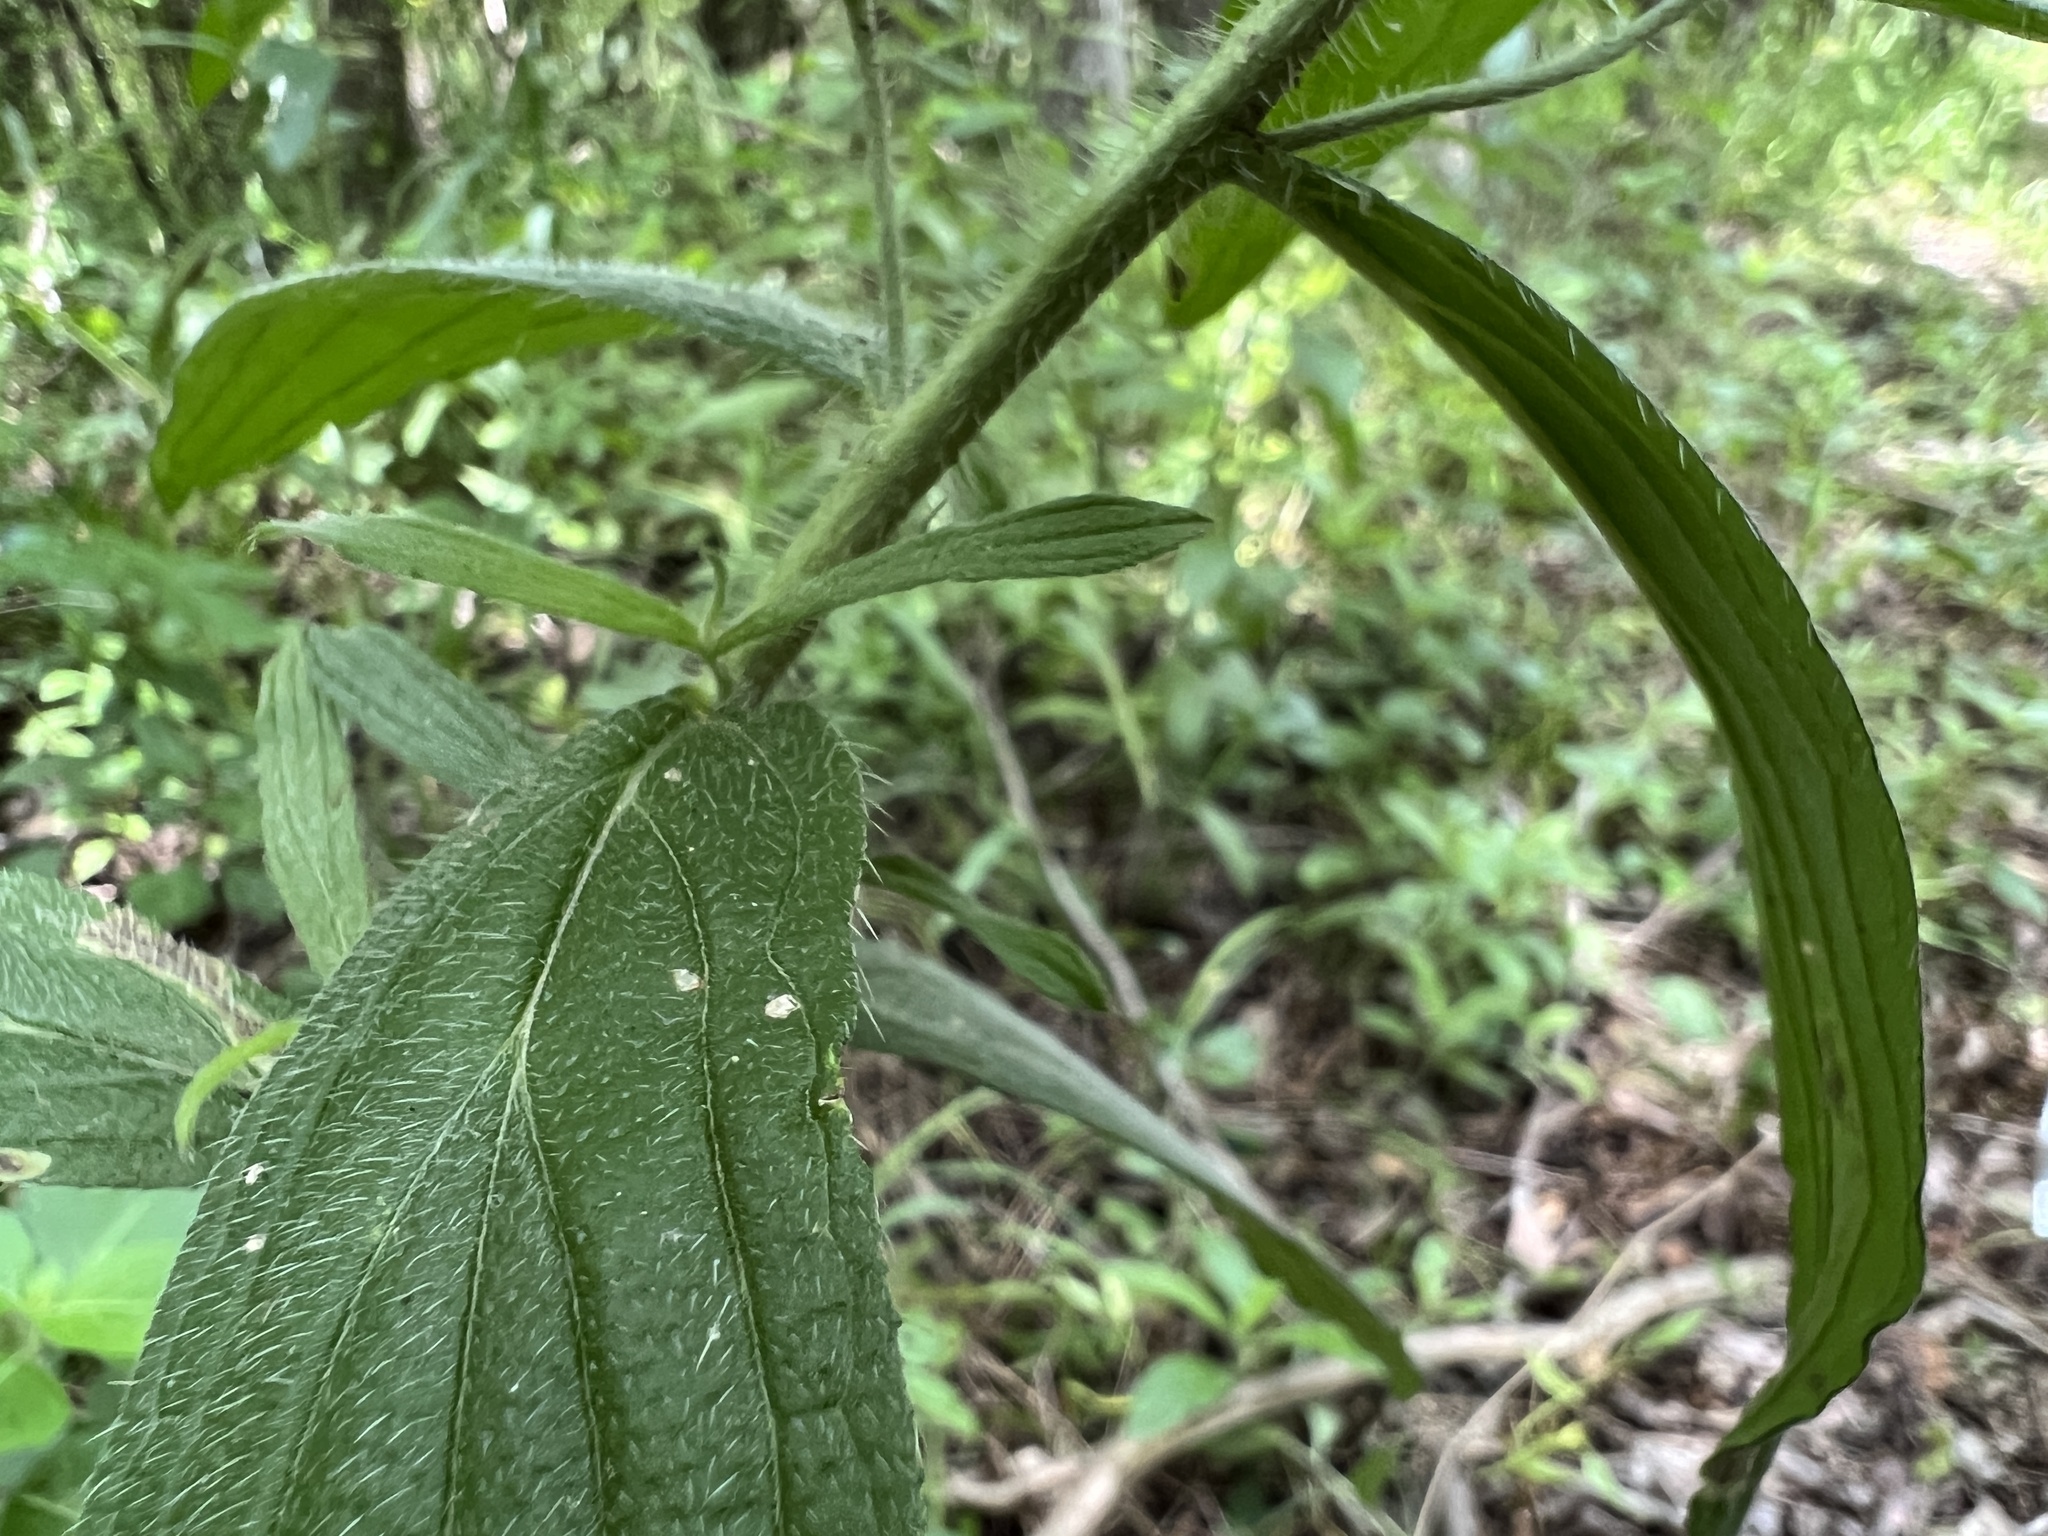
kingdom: Plantae
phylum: Tracheophyta
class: Magnoliopsida
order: Boraginales
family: Boraginaceae
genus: Lithospermum
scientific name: Lithospermum caroliniense
